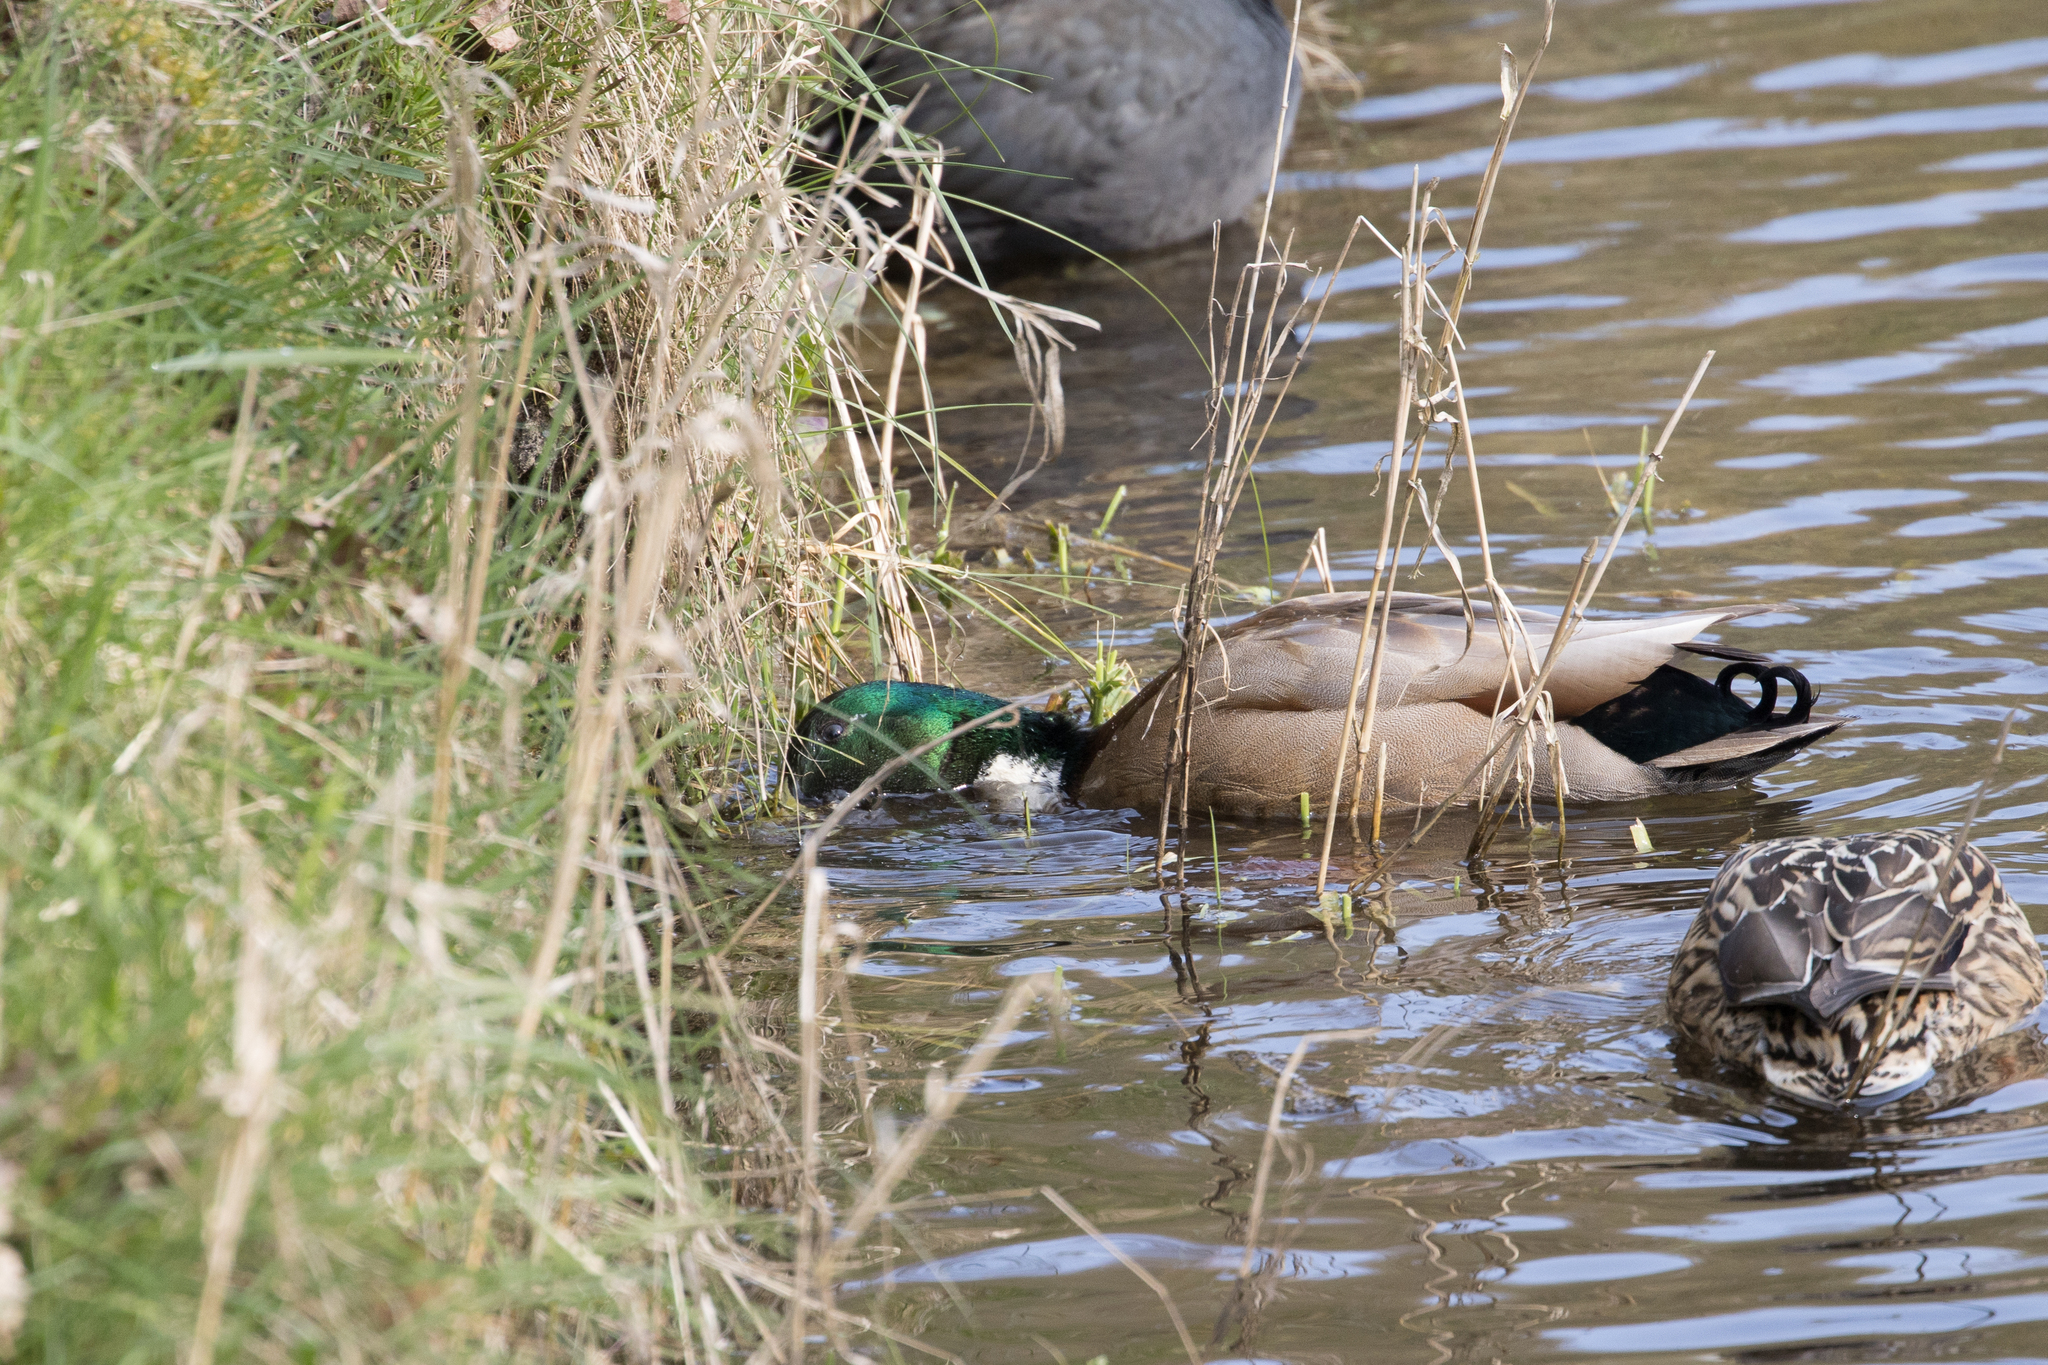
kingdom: Animalia
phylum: Chordata
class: Aves
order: Anseriformes
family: Anatidae
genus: Anas
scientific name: Anas platyrhynchos
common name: Mallard
